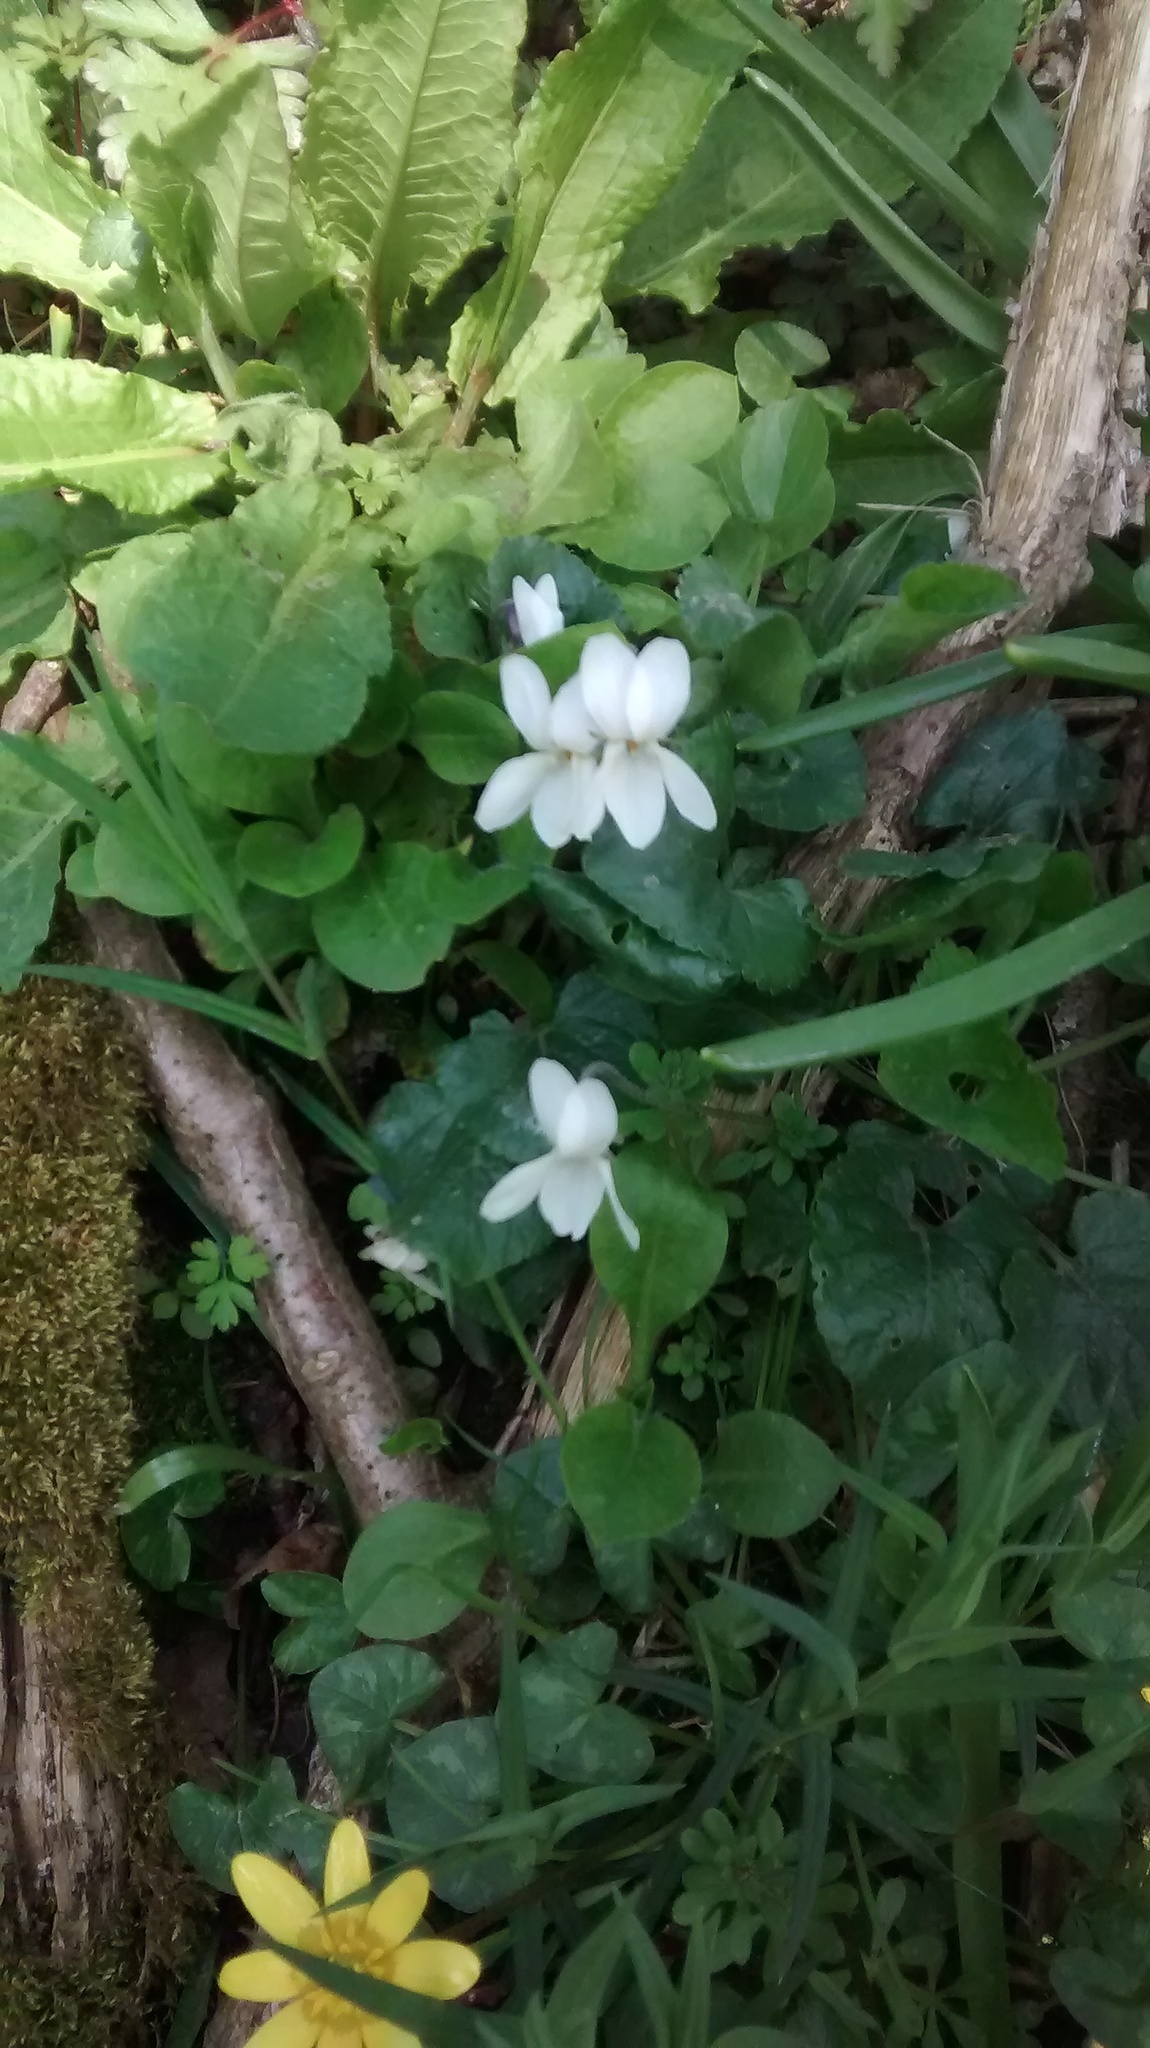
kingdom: Plantae
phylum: Tracheophyta
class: Magnoliopsida
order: Malpighiales
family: Violaceae
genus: Viola
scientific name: Viola odorata
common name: Sweet violet
